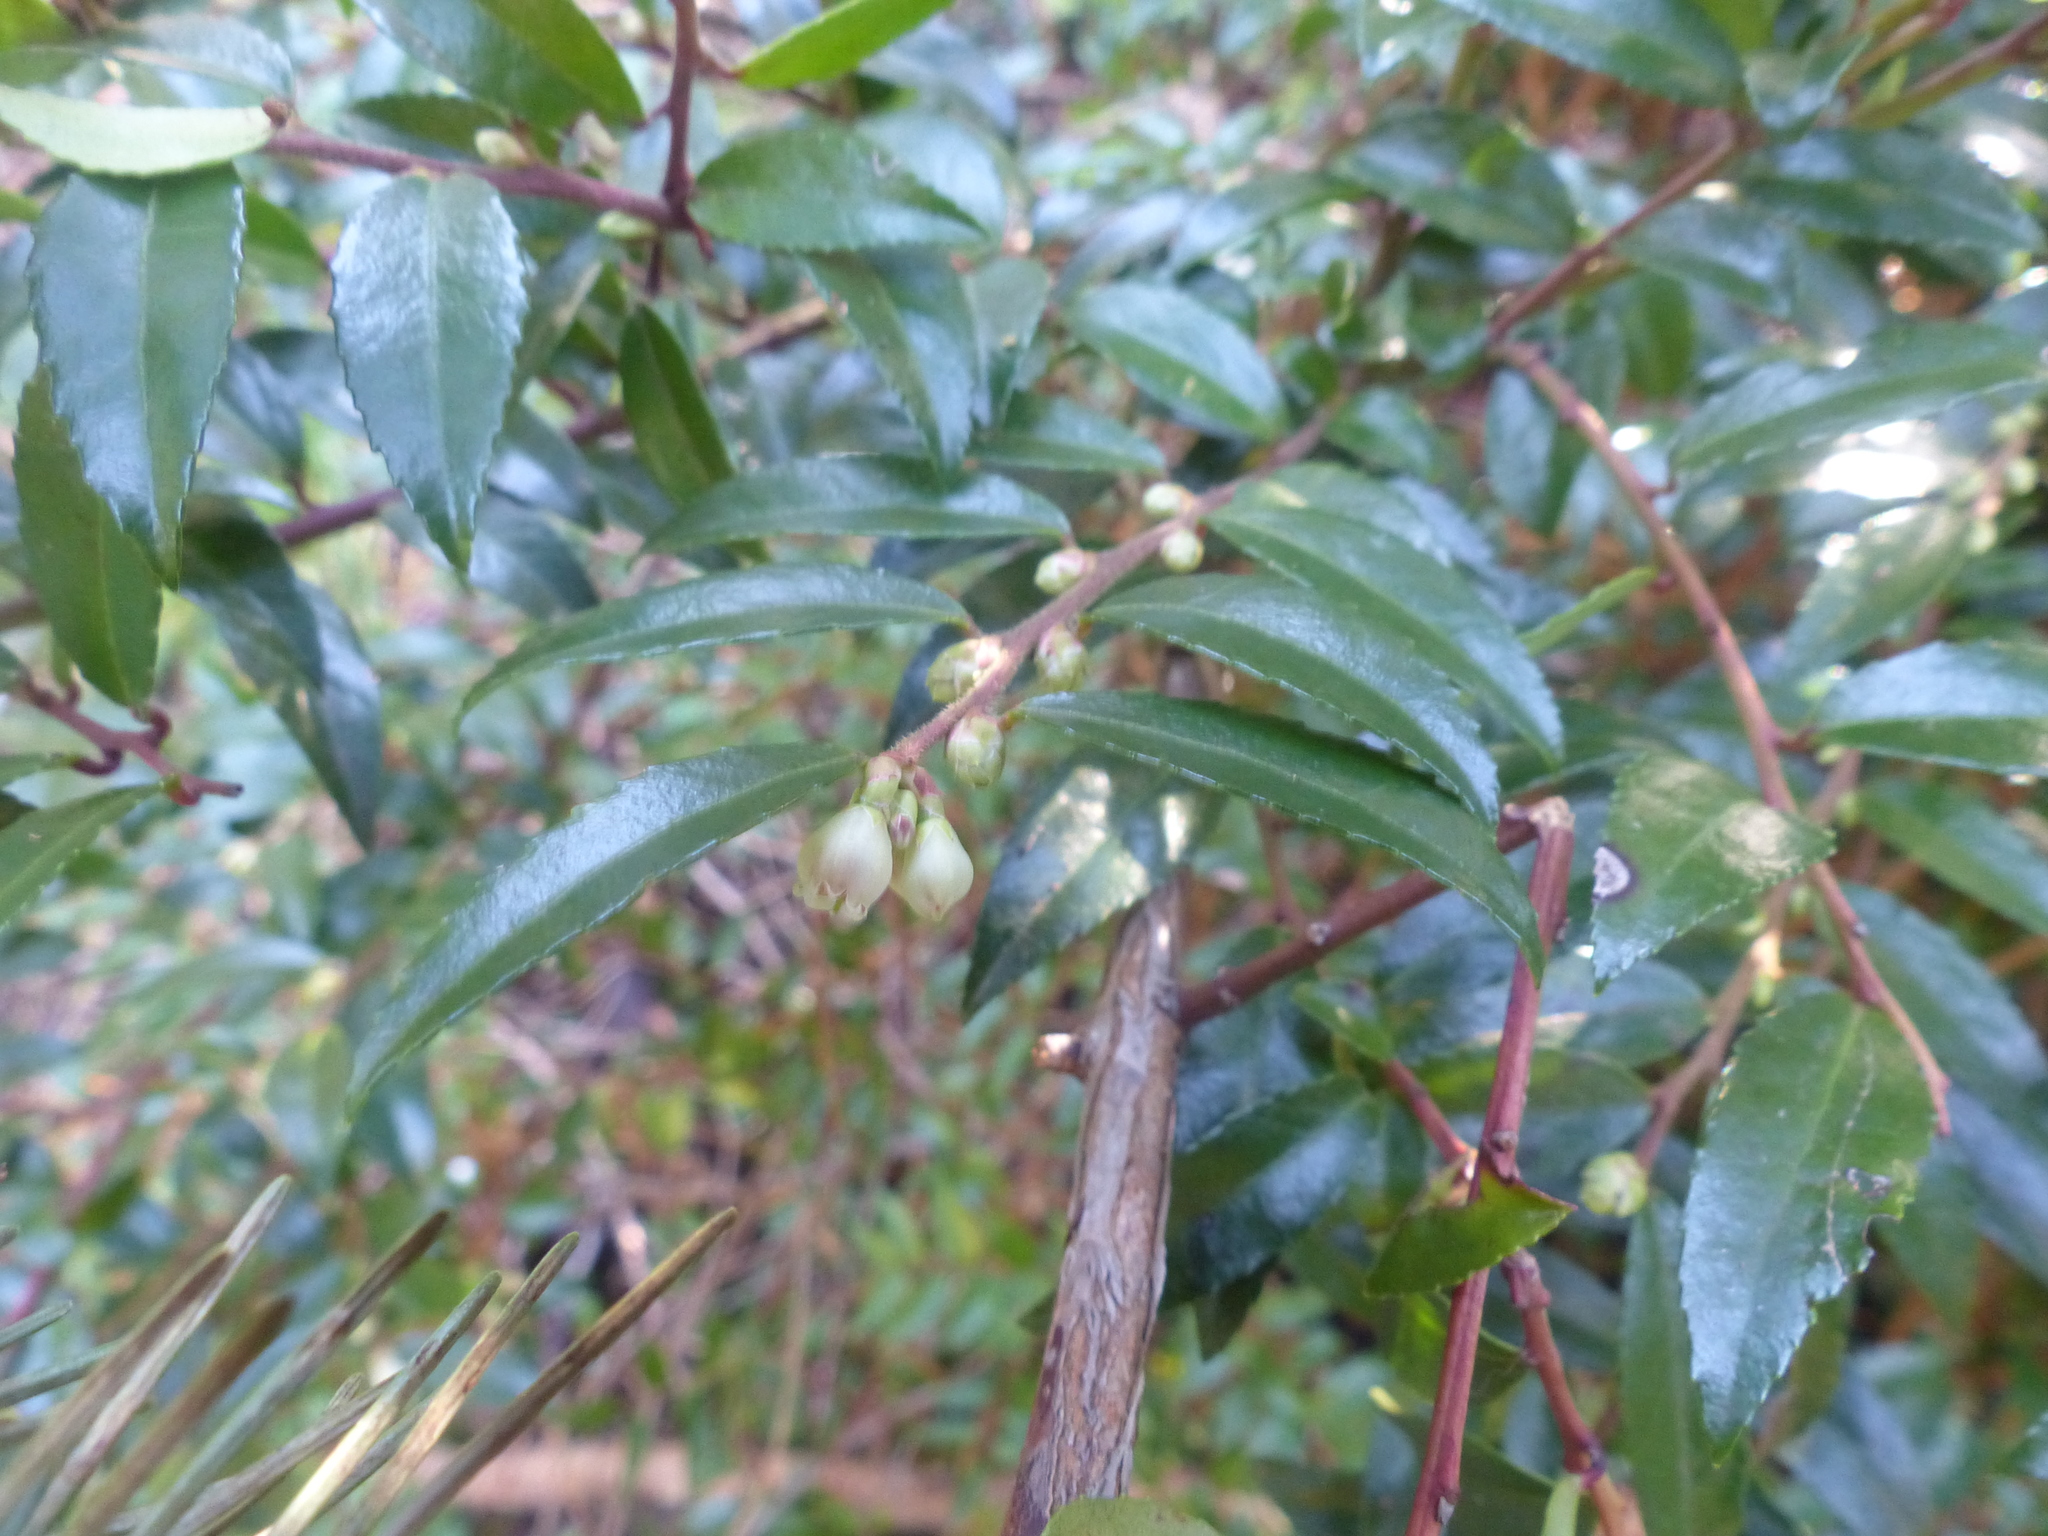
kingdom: Plantae
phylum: Tracheophyta
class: Magnoliopsida
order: Ericales
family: Ericaceae
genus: Vaccinium
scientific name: Vaccinium ovatum
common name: California-huckleberry
